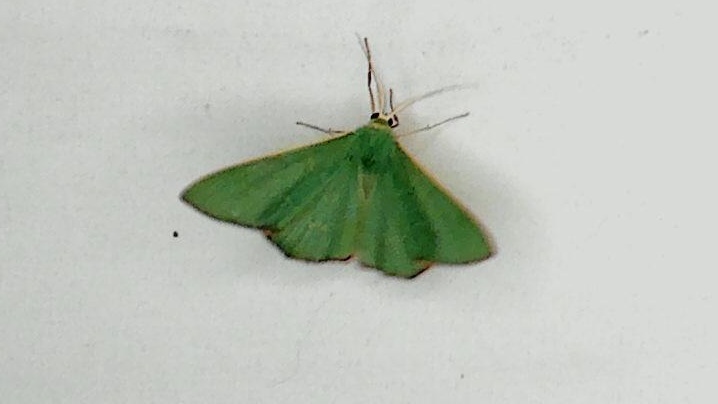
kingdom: Animalia
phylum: Arthropoda
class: Insecta
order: Lepidoptera
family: Geometridae
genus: Prasinocyma
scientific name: Prasinocyma semicrocea
